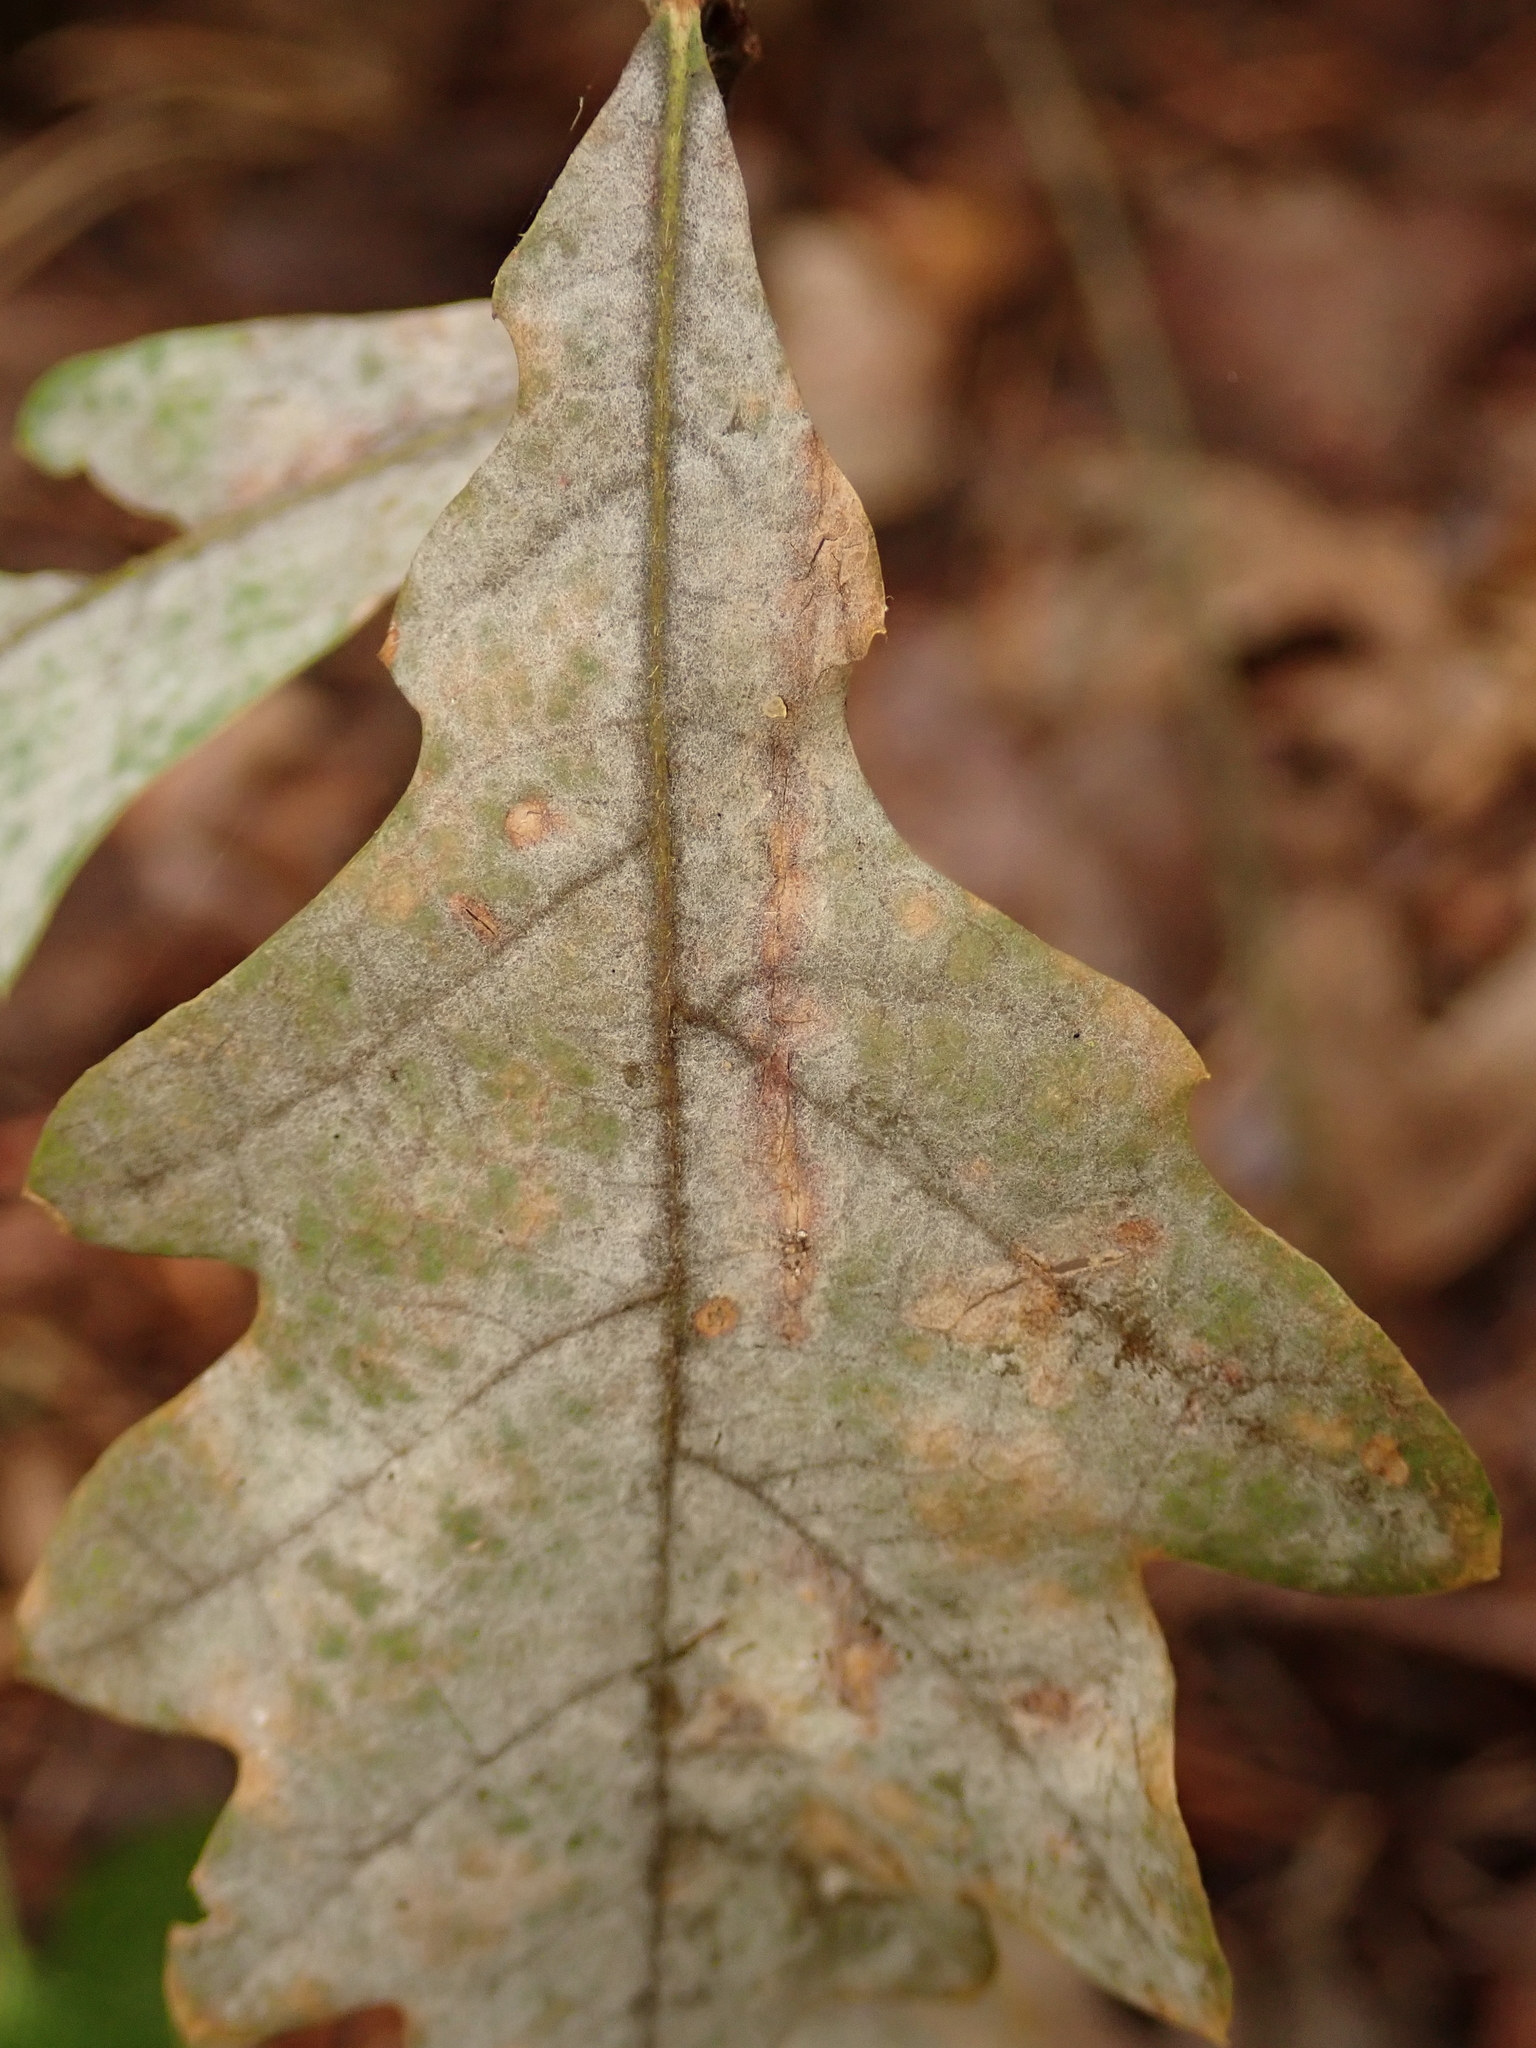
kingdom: Fungi
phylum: Ascomycota
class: Leotiomycetes
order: Helotiales
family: Erysiphaceae
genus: Erysiphe
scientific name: Erysiphe
